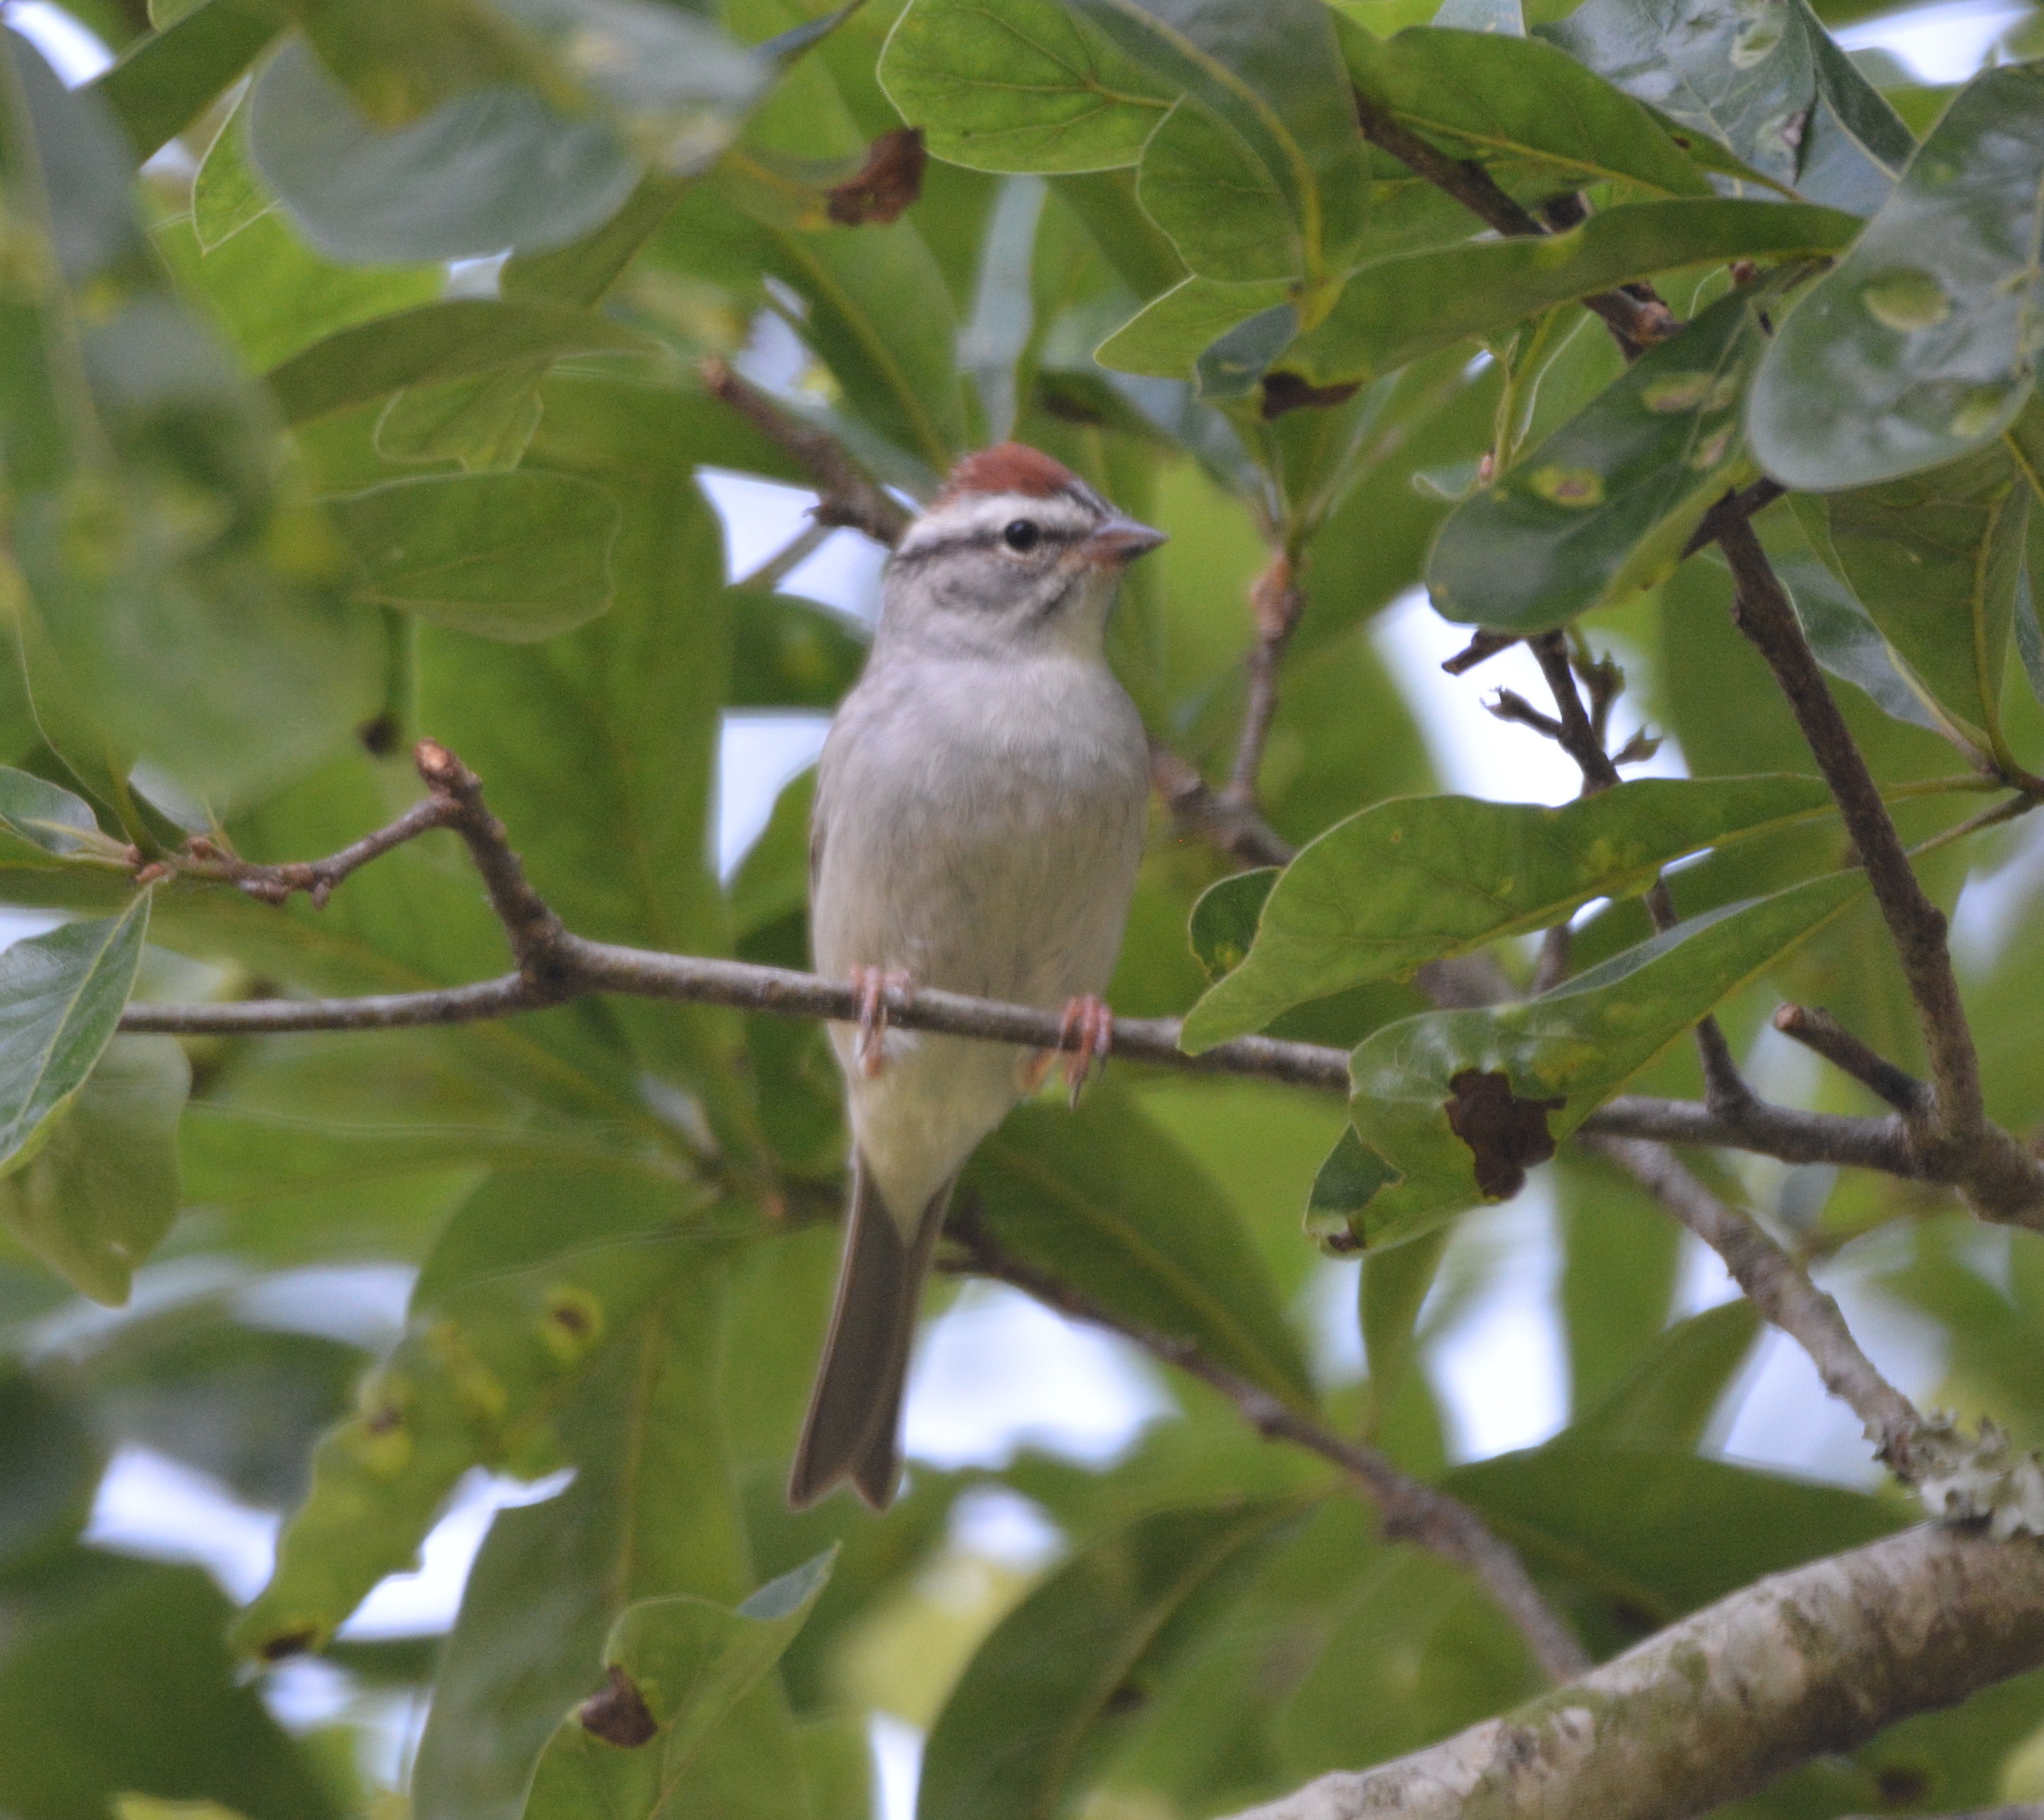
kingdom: Animalia
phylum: Chordata
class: Aves
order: Passeriformes
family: Passerellidae
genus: Spizella
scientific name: Spizella passerina
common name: Chipping sparrow
